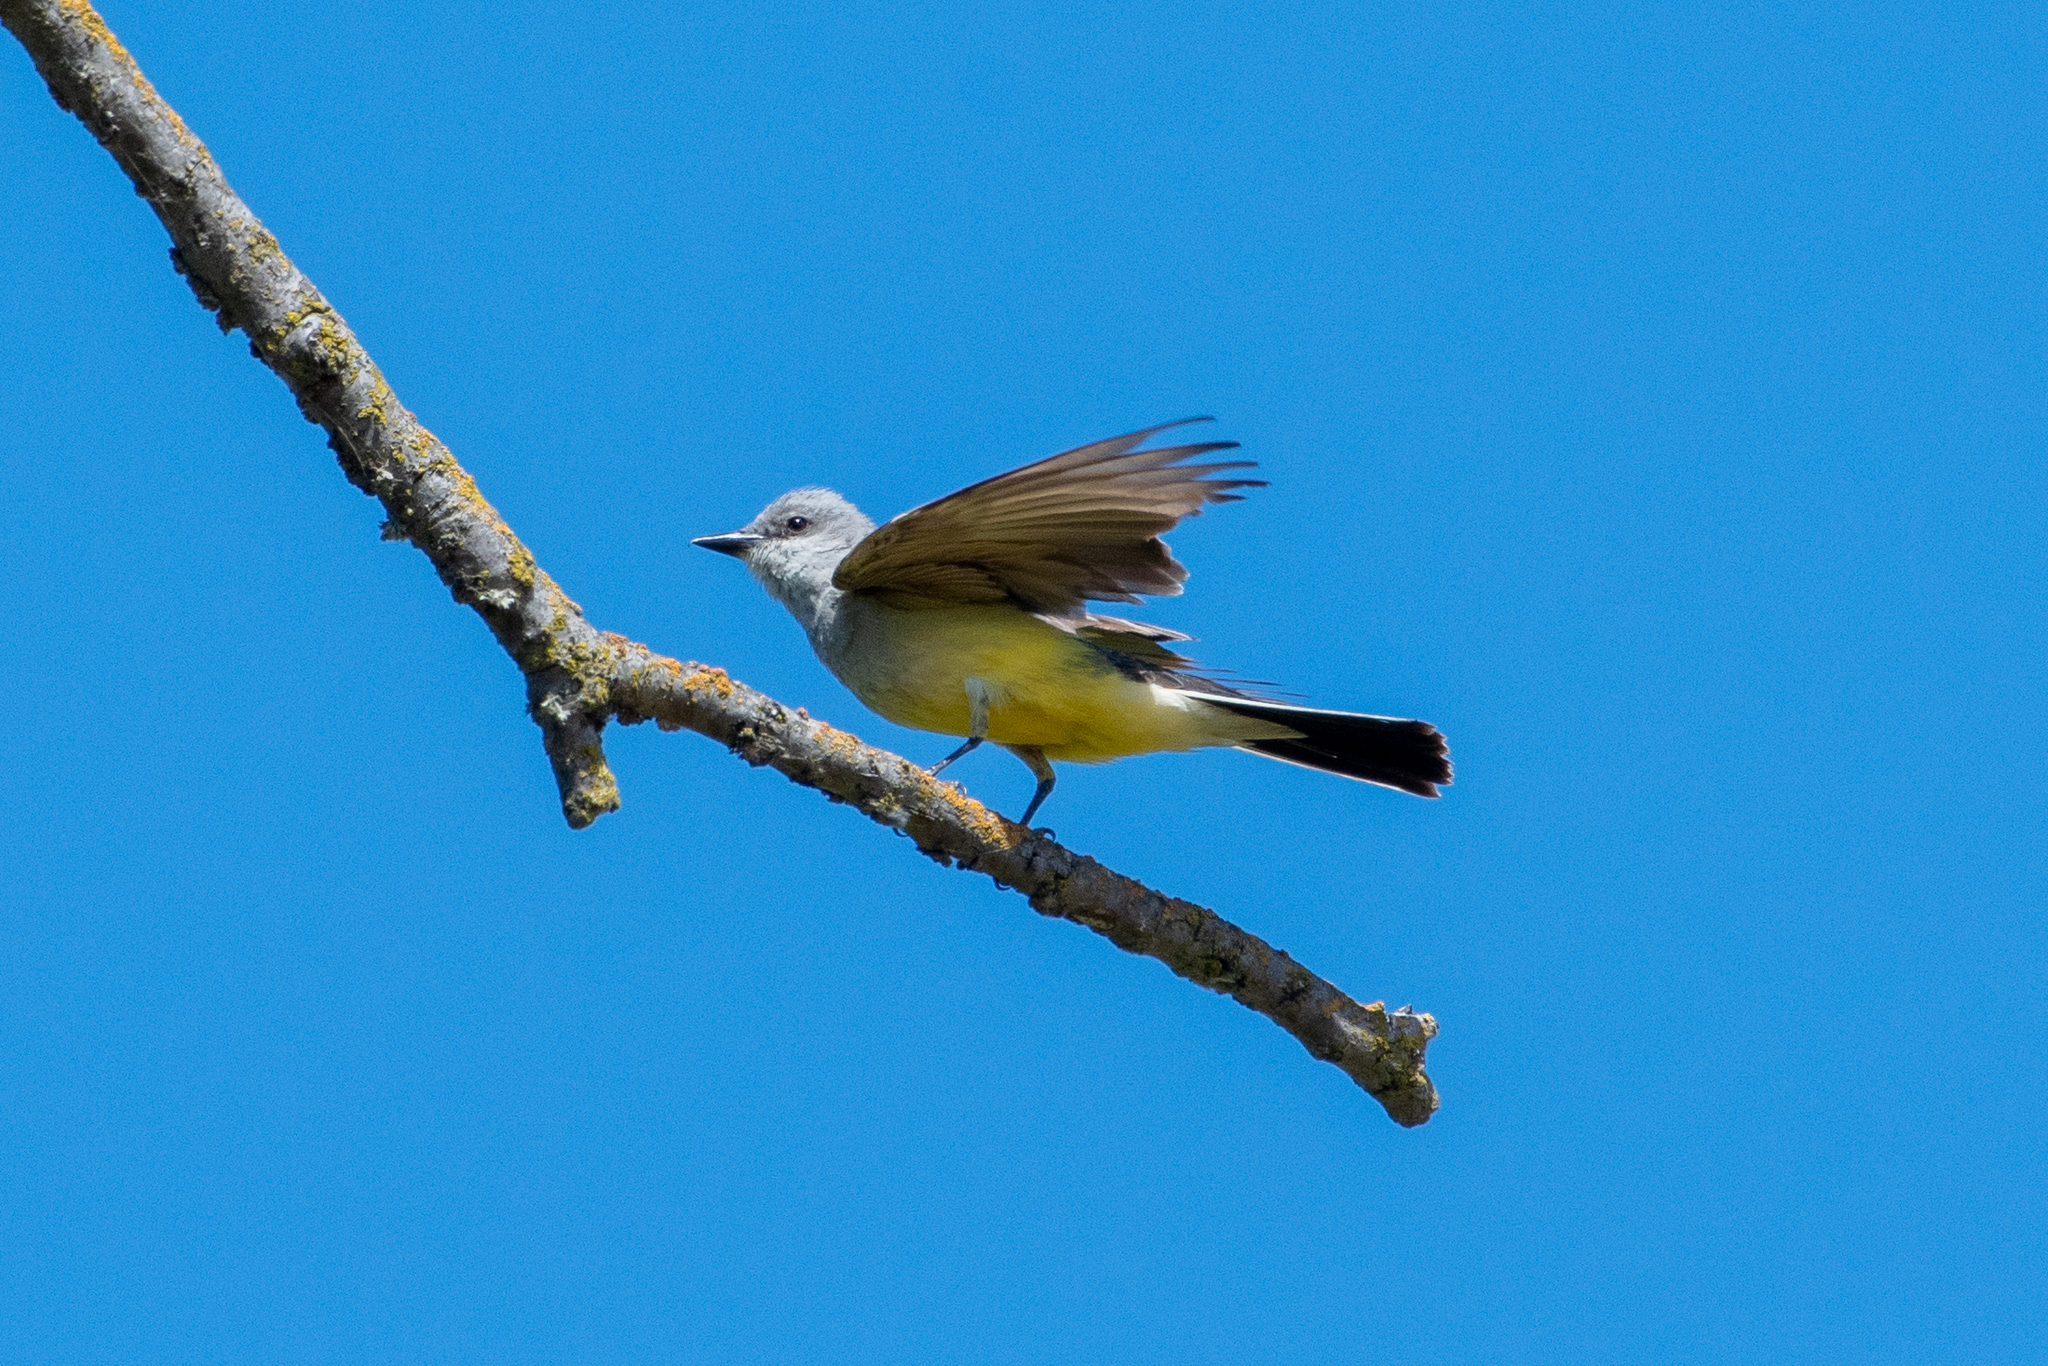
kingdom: Animalia
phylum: Chordata
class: Aves
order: Passeriformes
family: Tyrannidae
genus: Tyrannus
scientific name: Tyrannus verticalis
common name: Western kingbird
